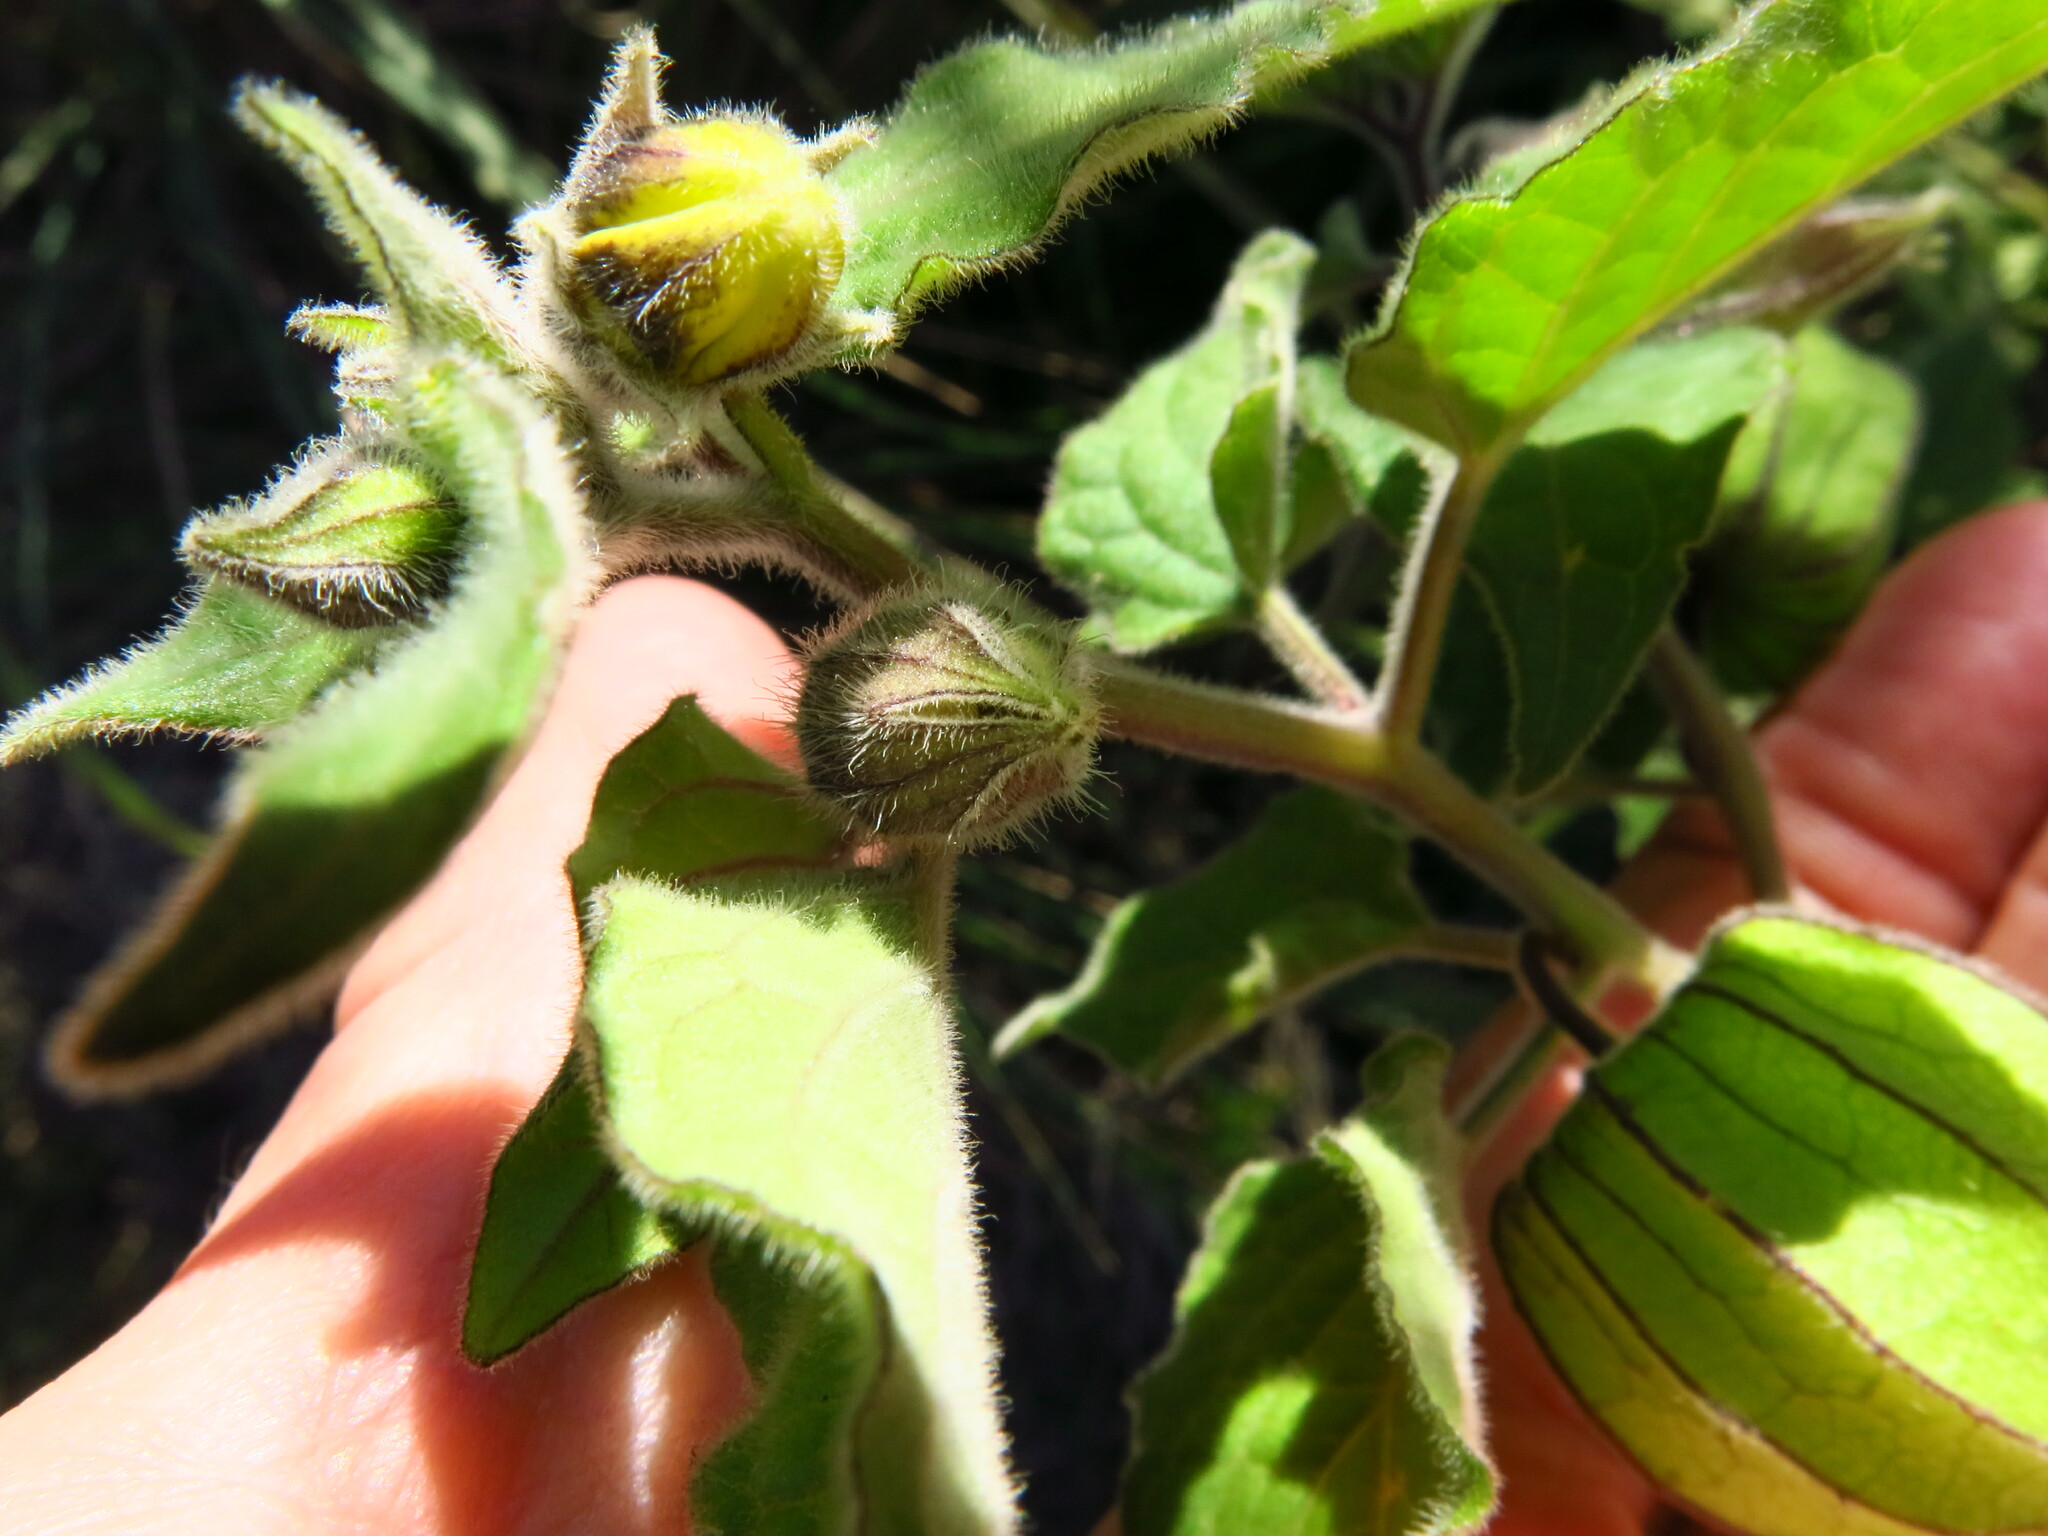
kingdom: Plantae
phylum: Tracheophyta
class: Magnoliopsida
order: Solanales
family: Solanaceae
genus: Physalis
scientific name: Physalis peruviana
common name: Cape-gooseberry
